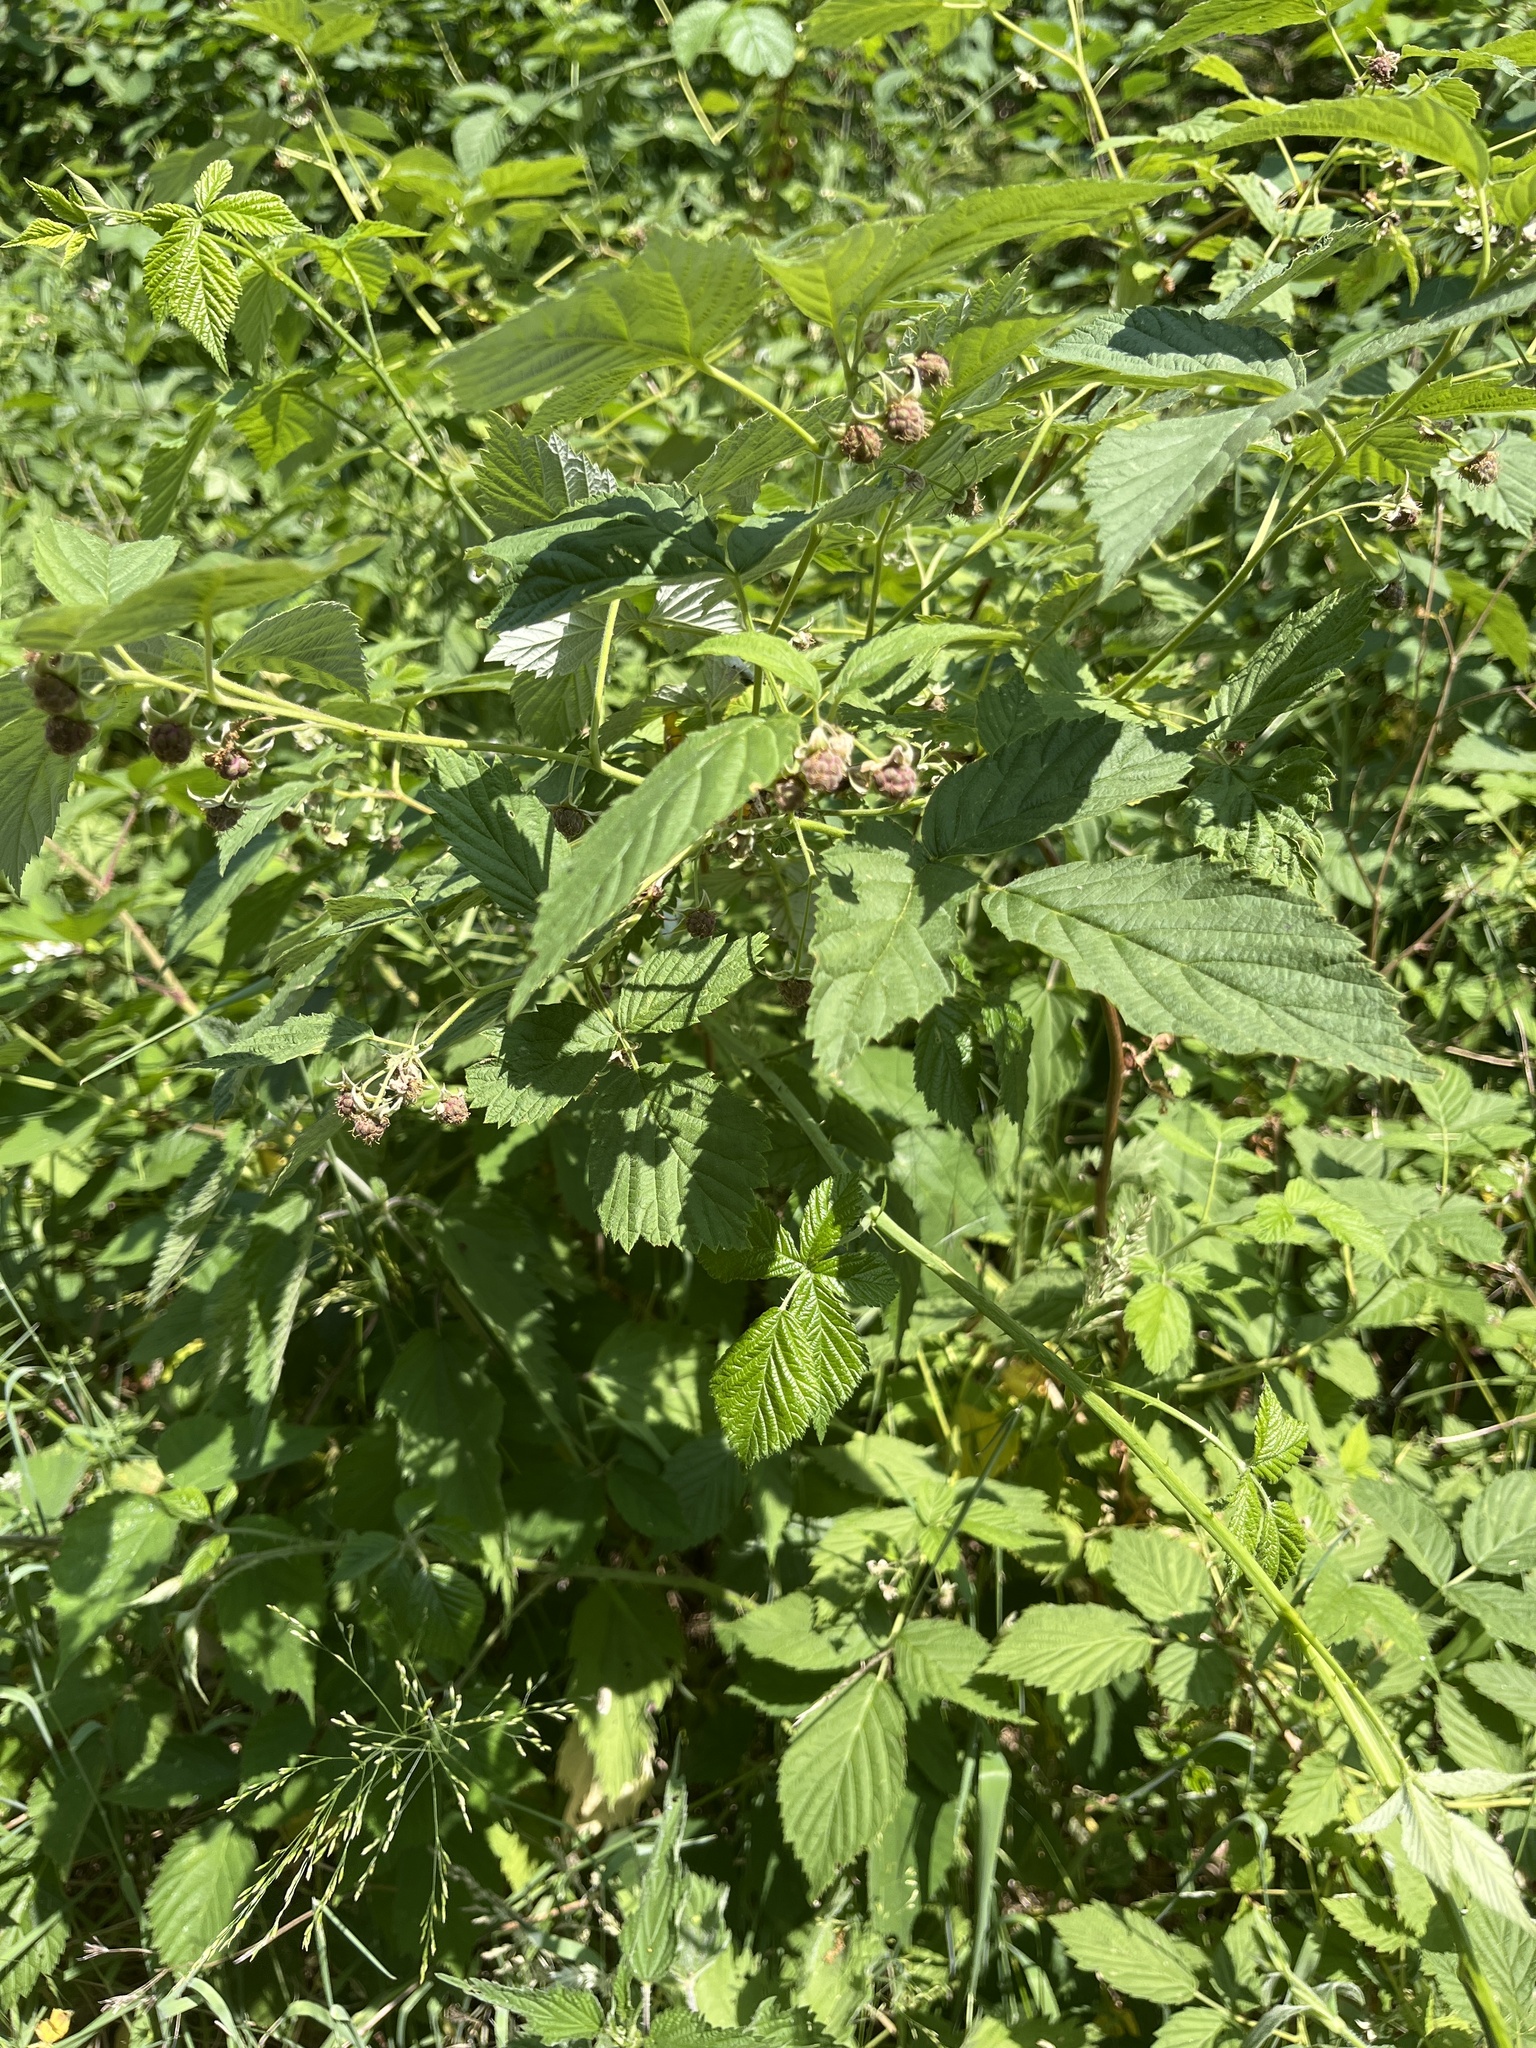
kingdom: Plantae
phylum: Tracheophyta
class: Magnoliopsida
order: Rosales
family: Rosaceae
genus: Rubus
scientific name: Rubus idaeus
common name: Raspberry
